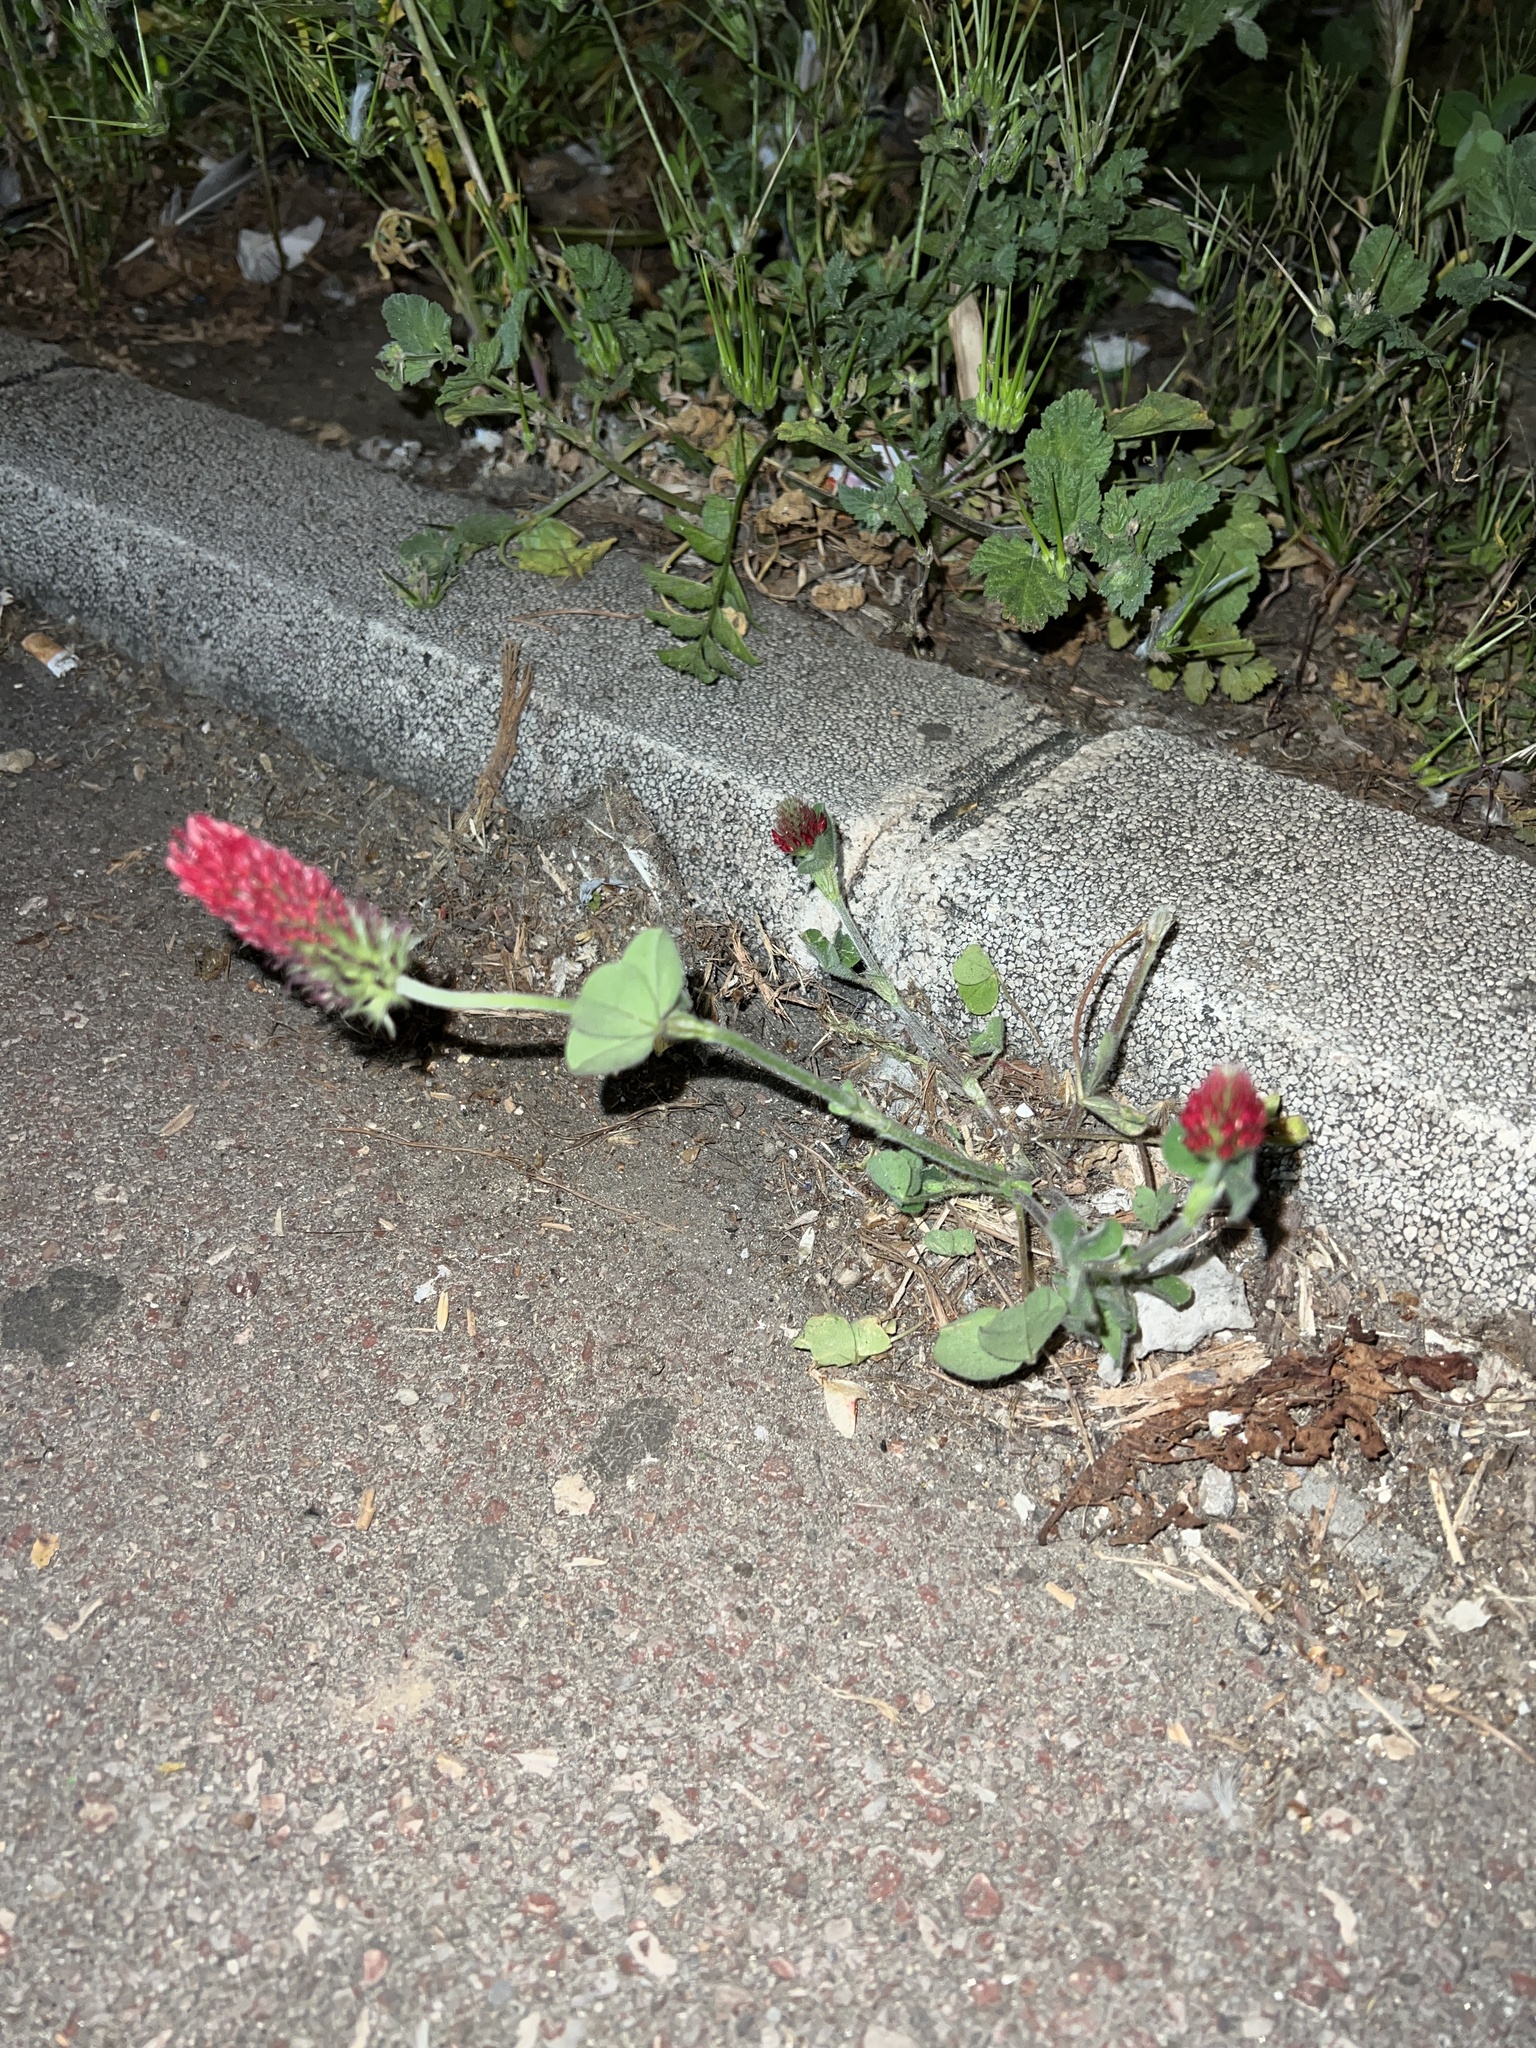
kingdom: Plantae
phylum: Tracheophyta
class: Magnoliopsida
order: Fabales
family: Fabaceae
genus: Trifolium
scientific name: Trifolium incarnatum
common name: Crimson clover
